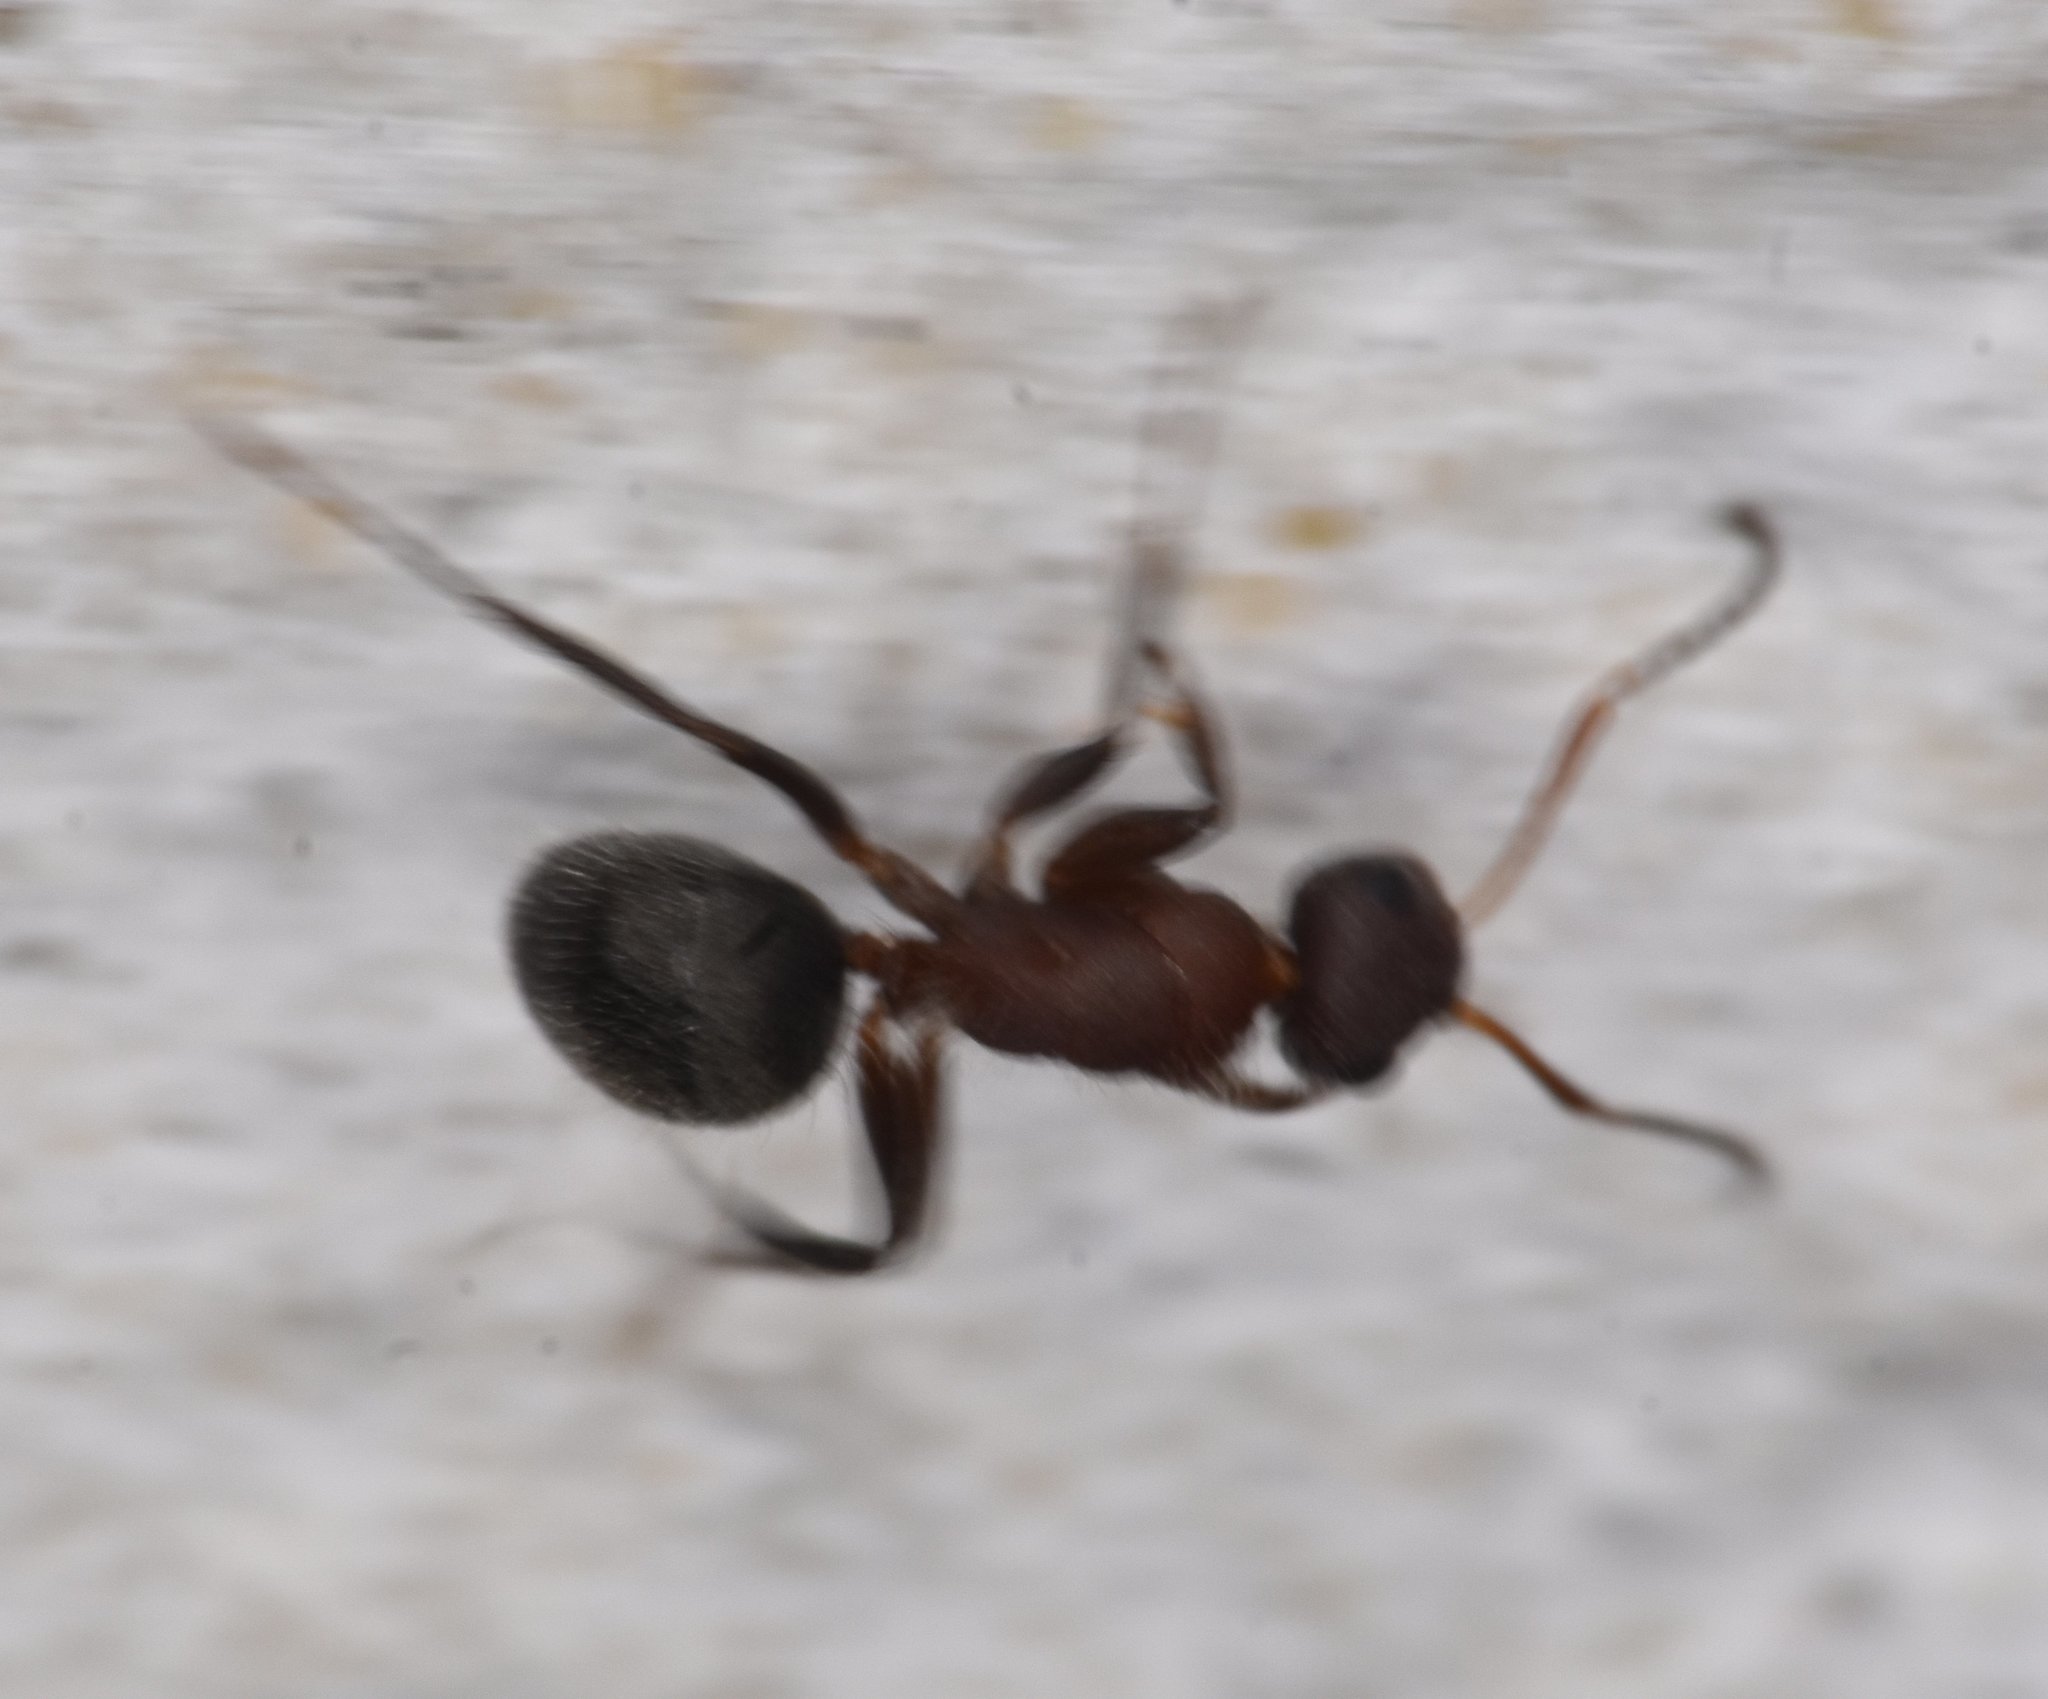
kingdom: Animalia
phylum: Arthropoda
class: Insecta
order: Hymenoptera
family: Formicidae
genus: Camponotus
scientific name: Camponotus planatus
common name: Compact carpenter ant
